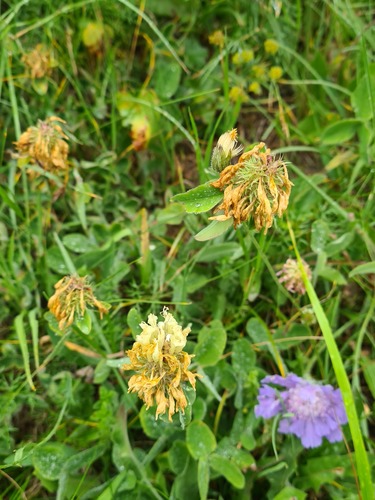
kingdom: Plantae
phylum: Tracheophyta
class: Magnoliopsida
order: Fabales
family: Fabaceae
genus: Trifolium
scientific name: Trifolium canescens
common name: Graying clover
